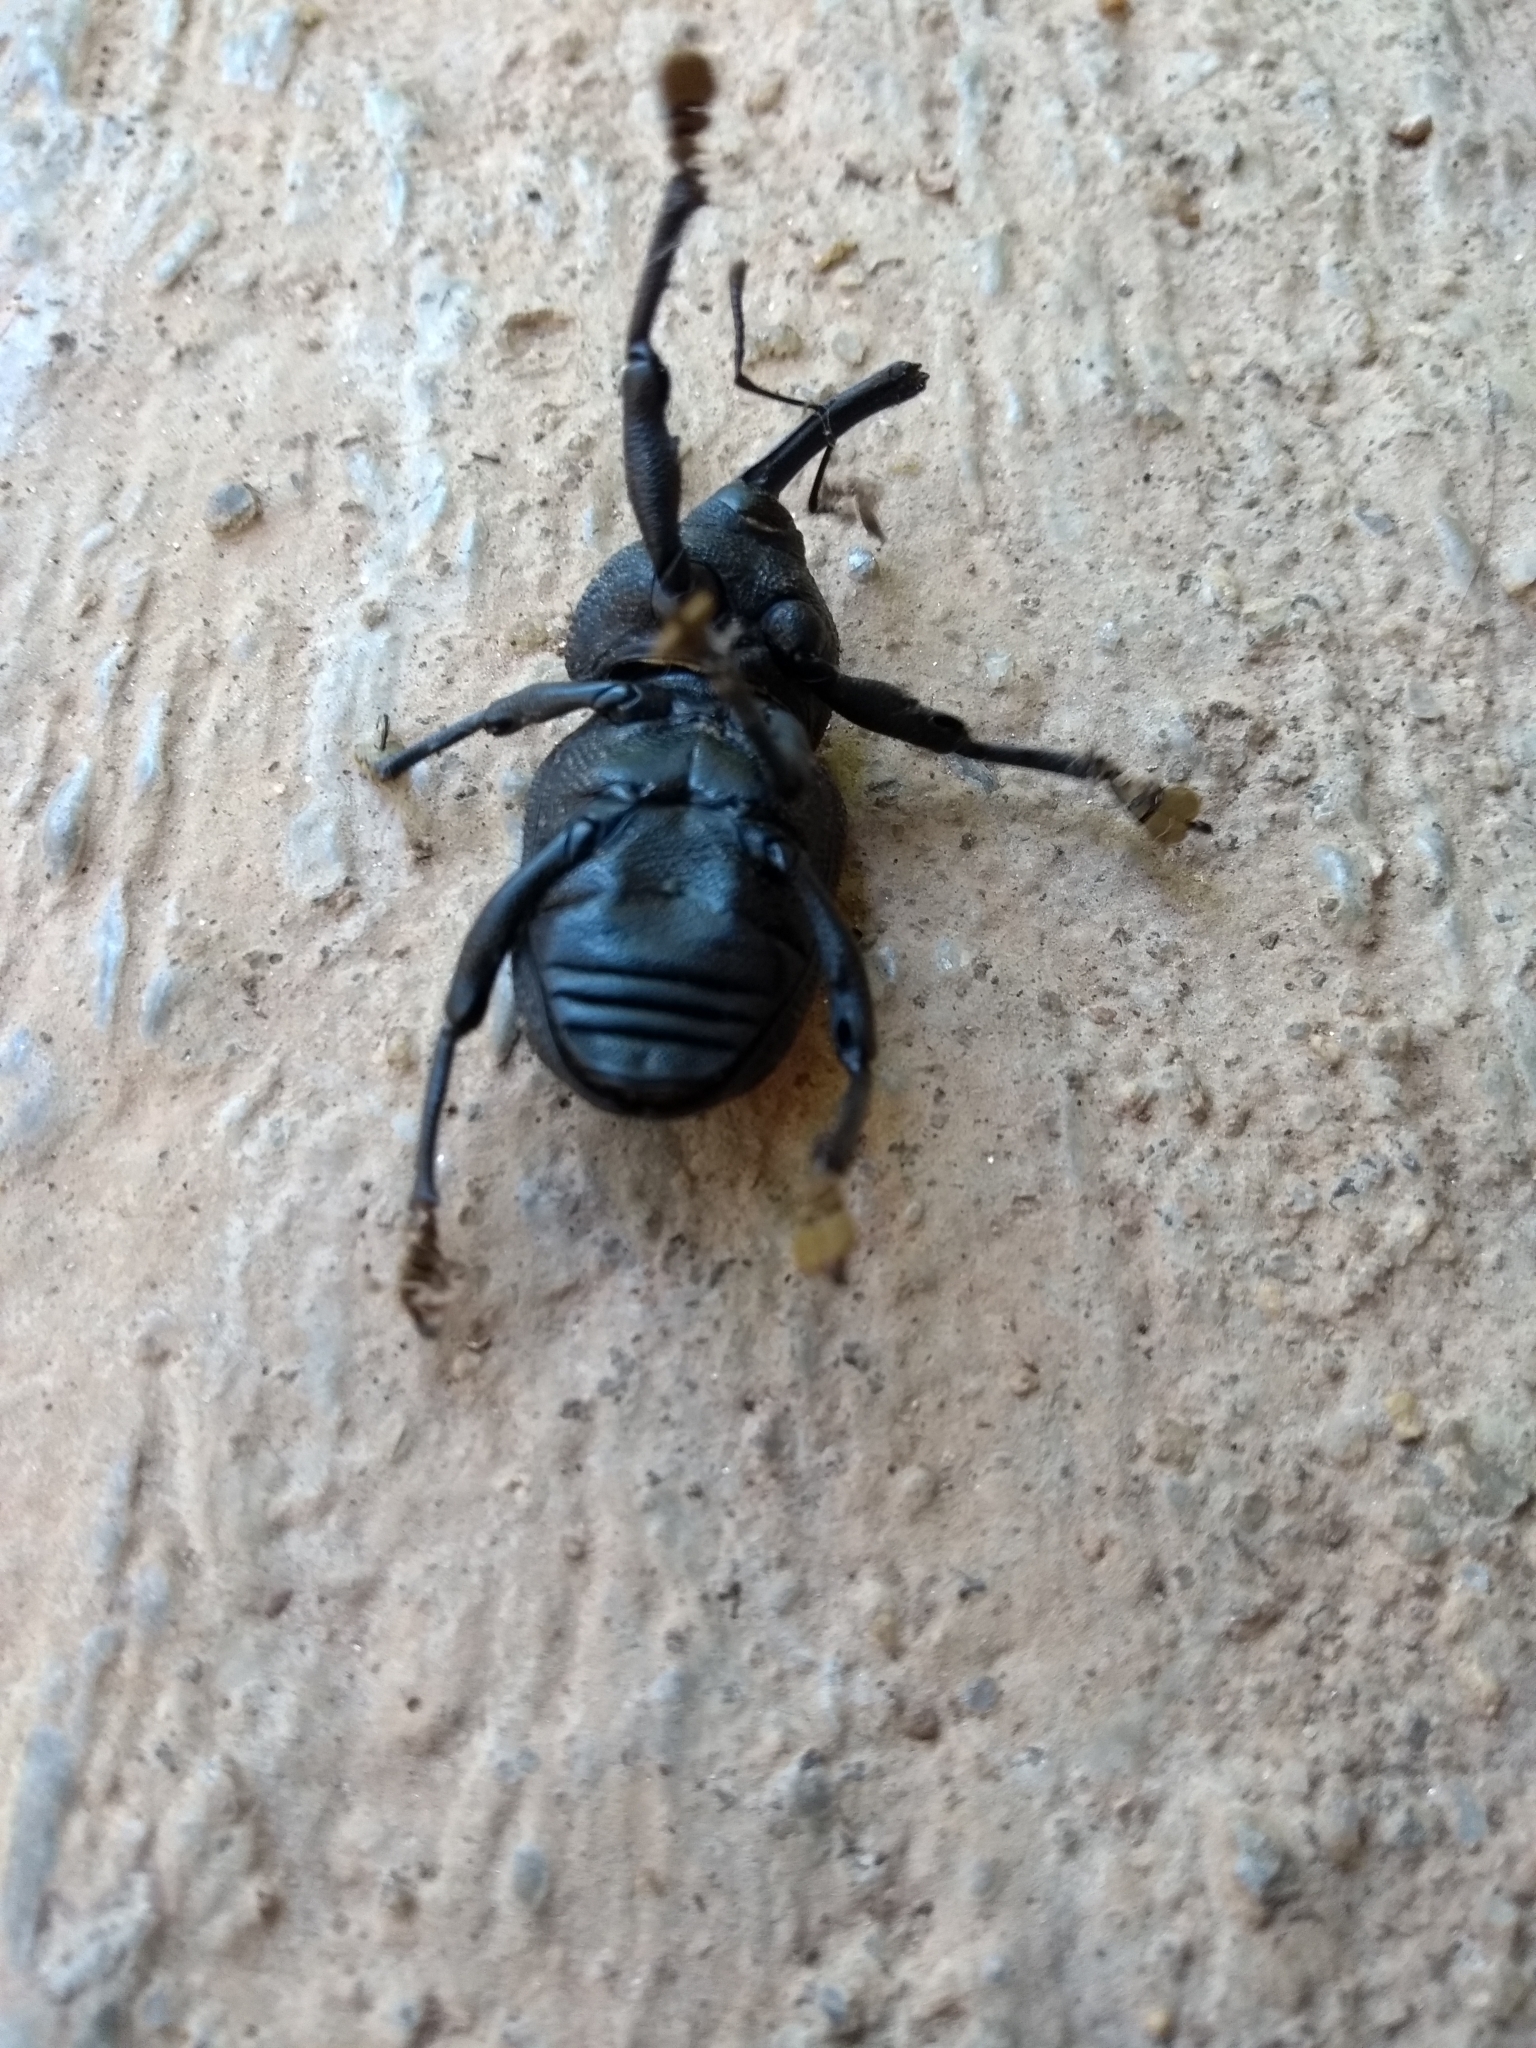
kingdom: Animalia
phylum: Arthropoda
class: Insecta
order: Coleoptera
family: Curculionidae
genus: Homalinotus
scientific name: Homalinotus coriaceus
